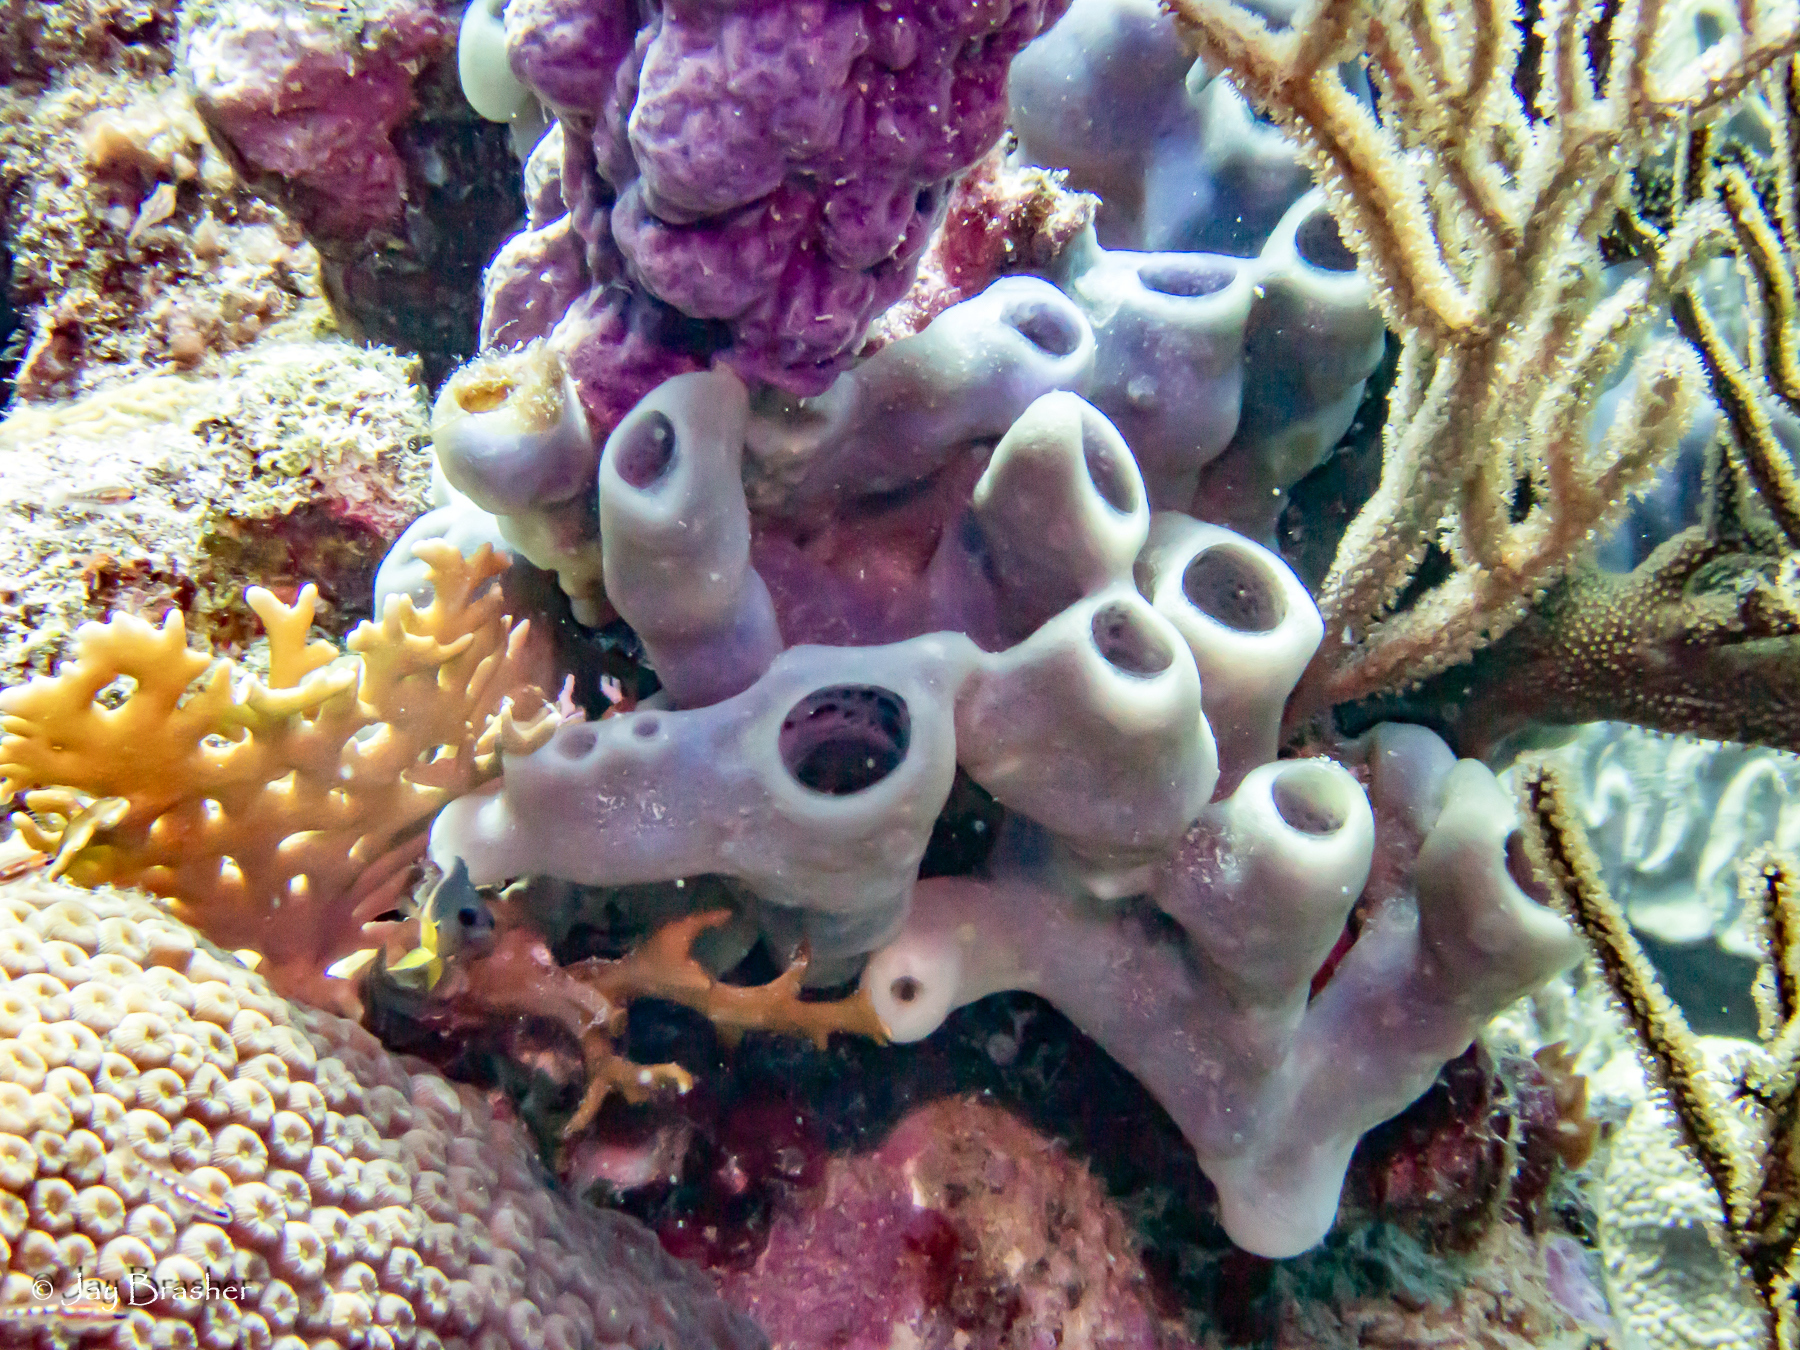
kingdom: Animalia
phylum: Porifera
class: Demospongiae
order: Haplosclerida
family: Callyspongiidae
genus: Callyspongia
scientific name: Callyspongia fallax
